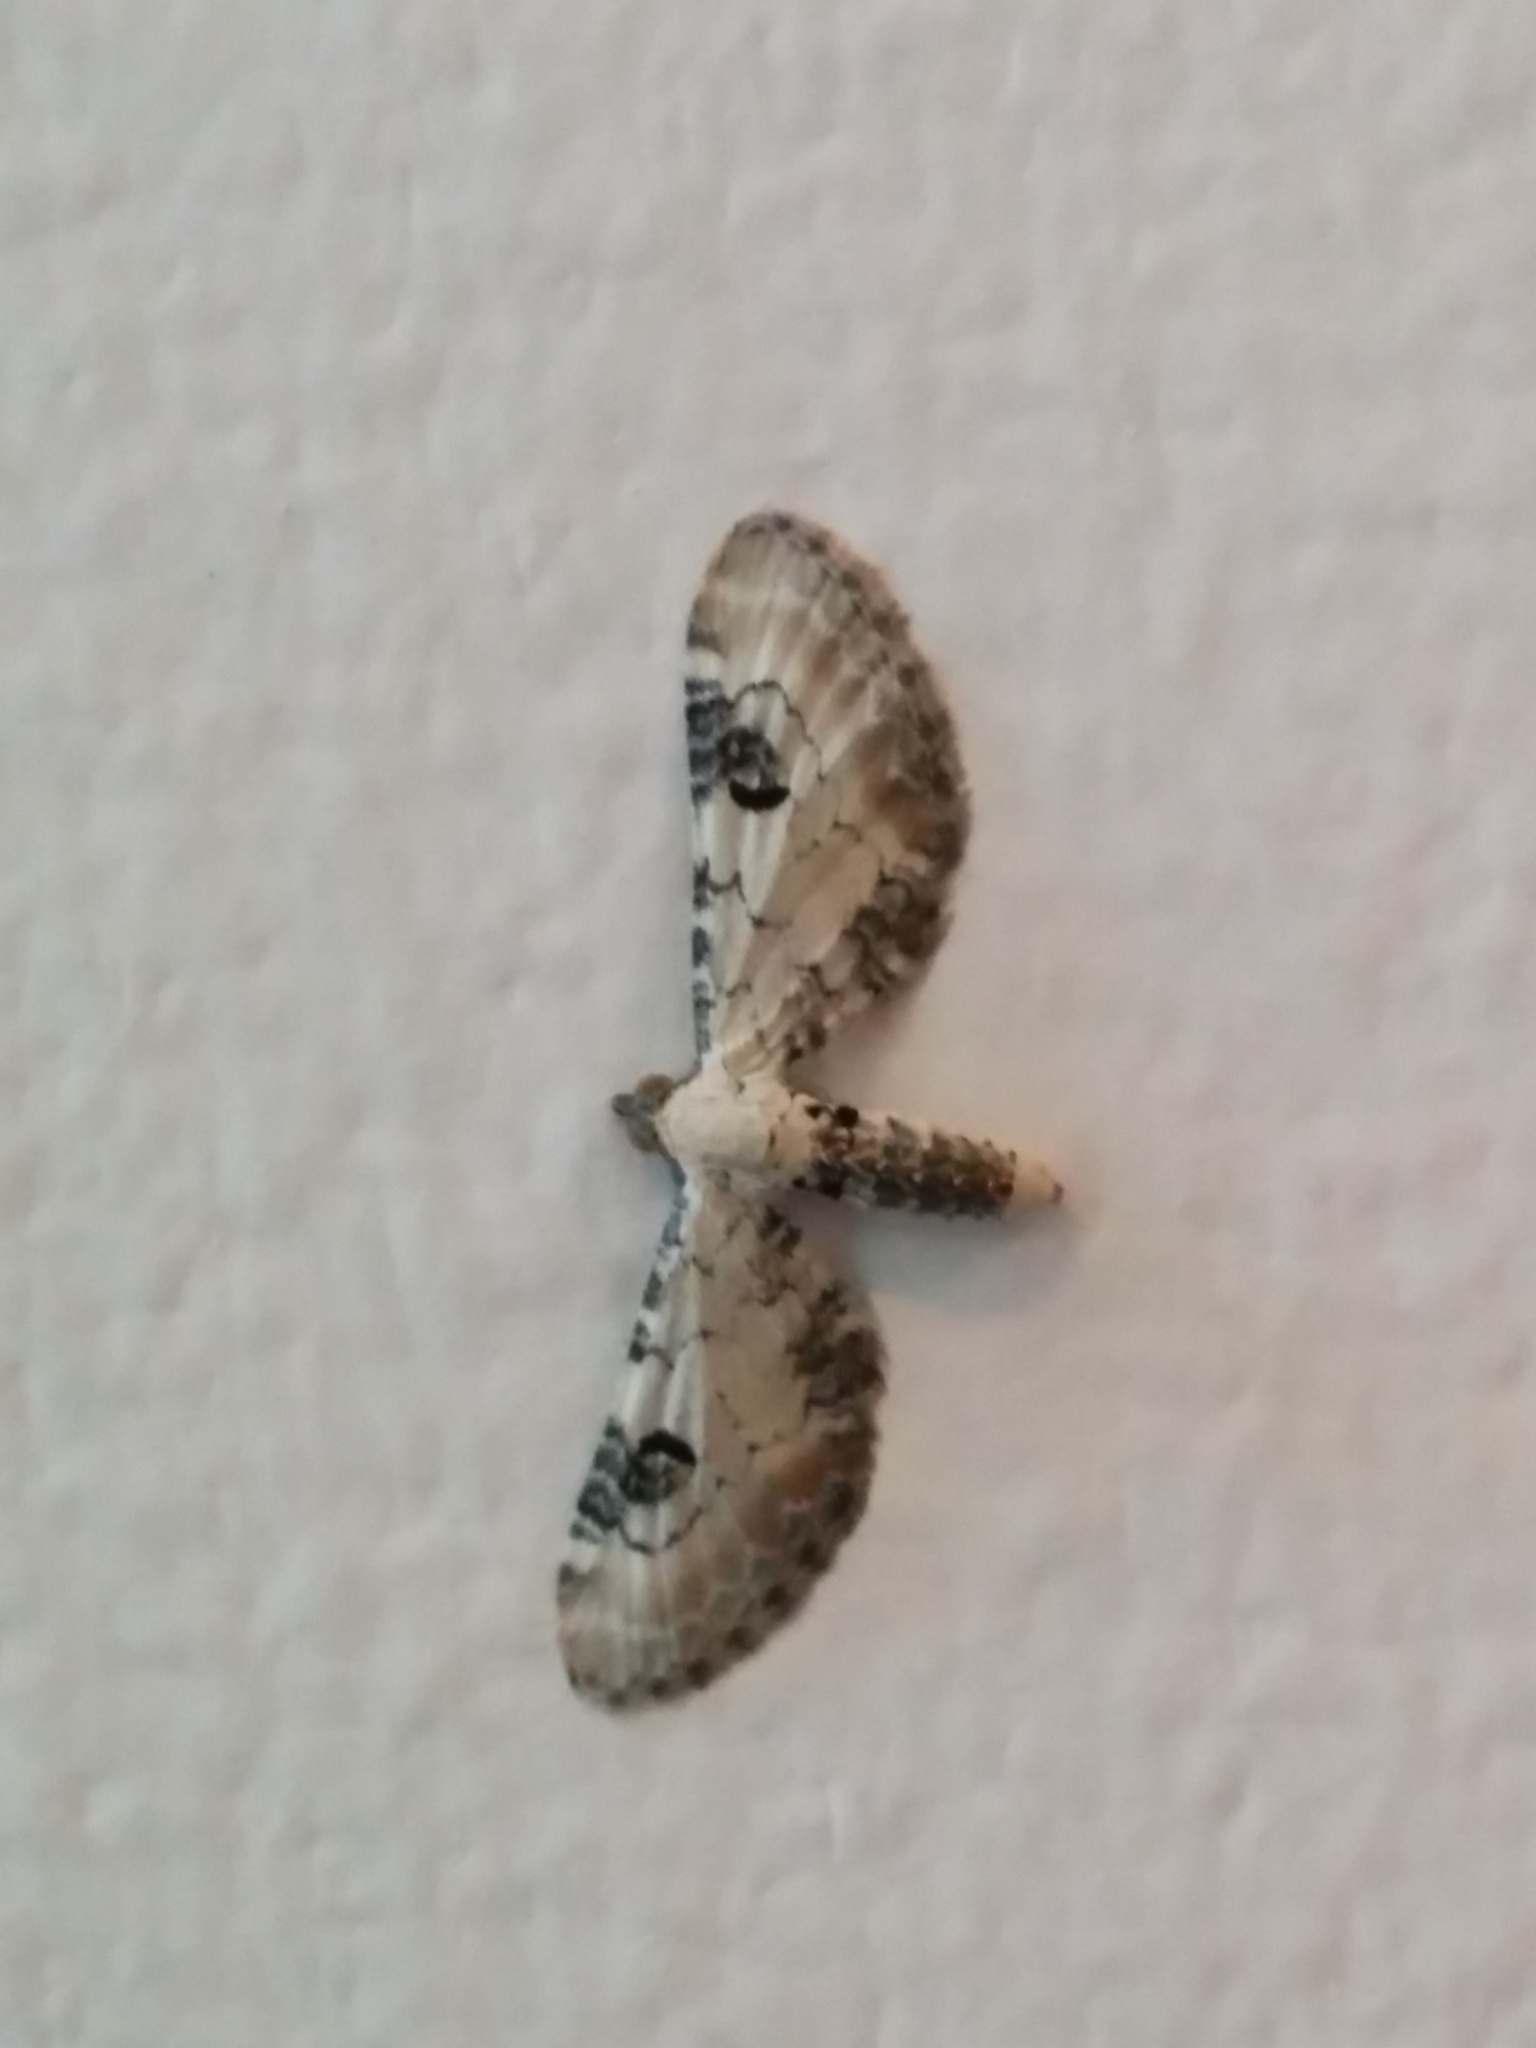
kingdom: Animalia
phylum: Arthropoda
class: Insecta
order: Lepidoptera
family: Geometridae
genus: Eupithecia
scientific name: Eupithecia centaureata
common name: Lime-speck pug
